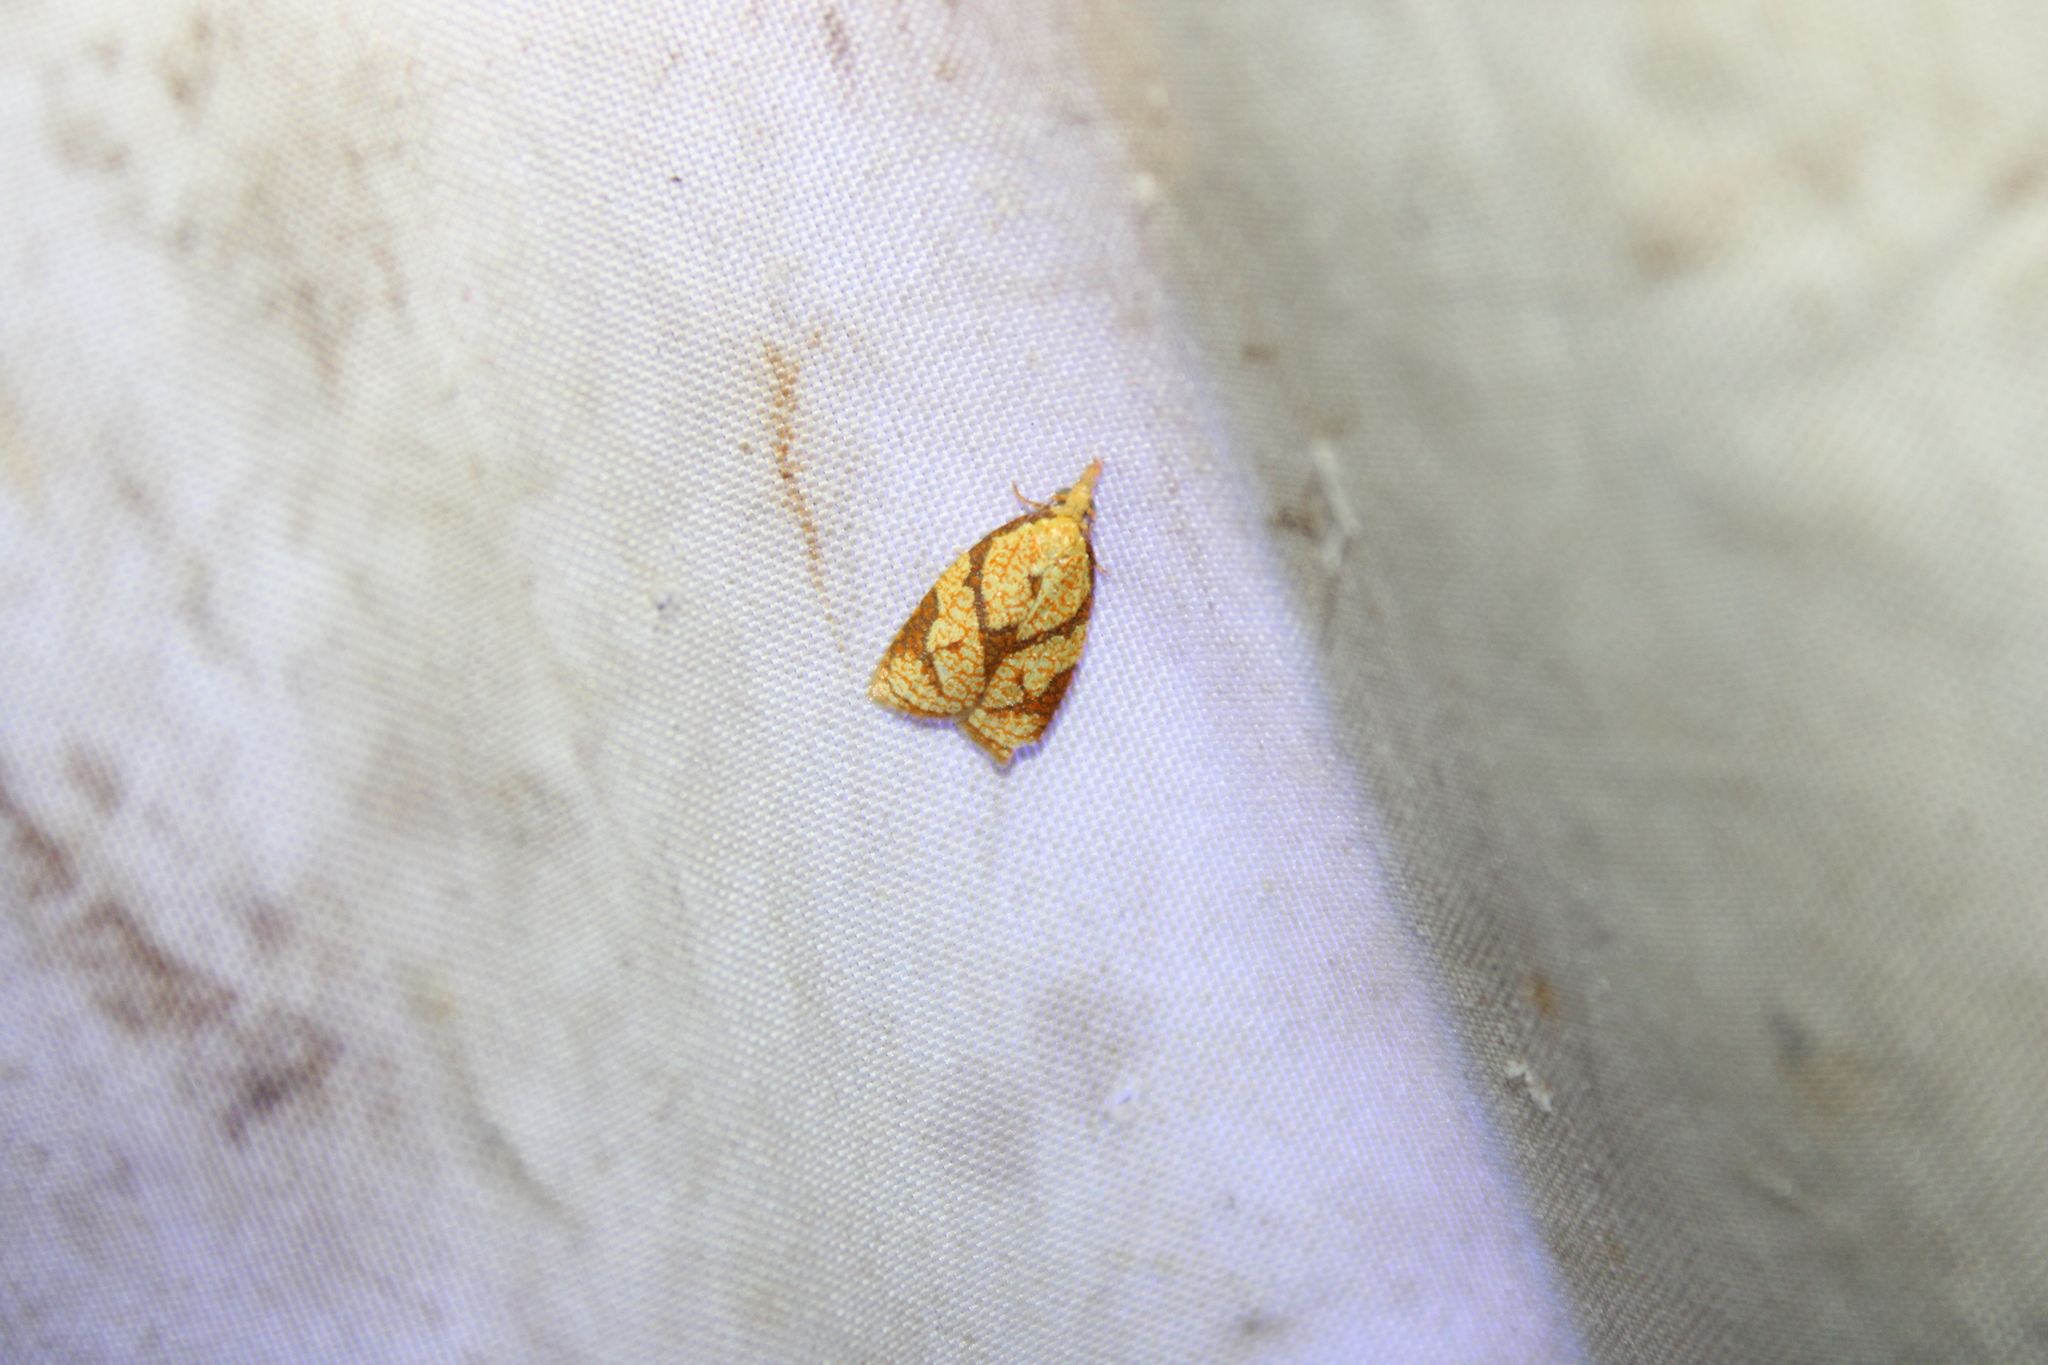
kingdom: Animalia
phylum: Arthropoda
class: Insecta
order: Lepidoptera
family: Tortricidae
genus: Cenopis
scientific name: Cenopis reticulatana
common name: Reticulated fruitworm moth
